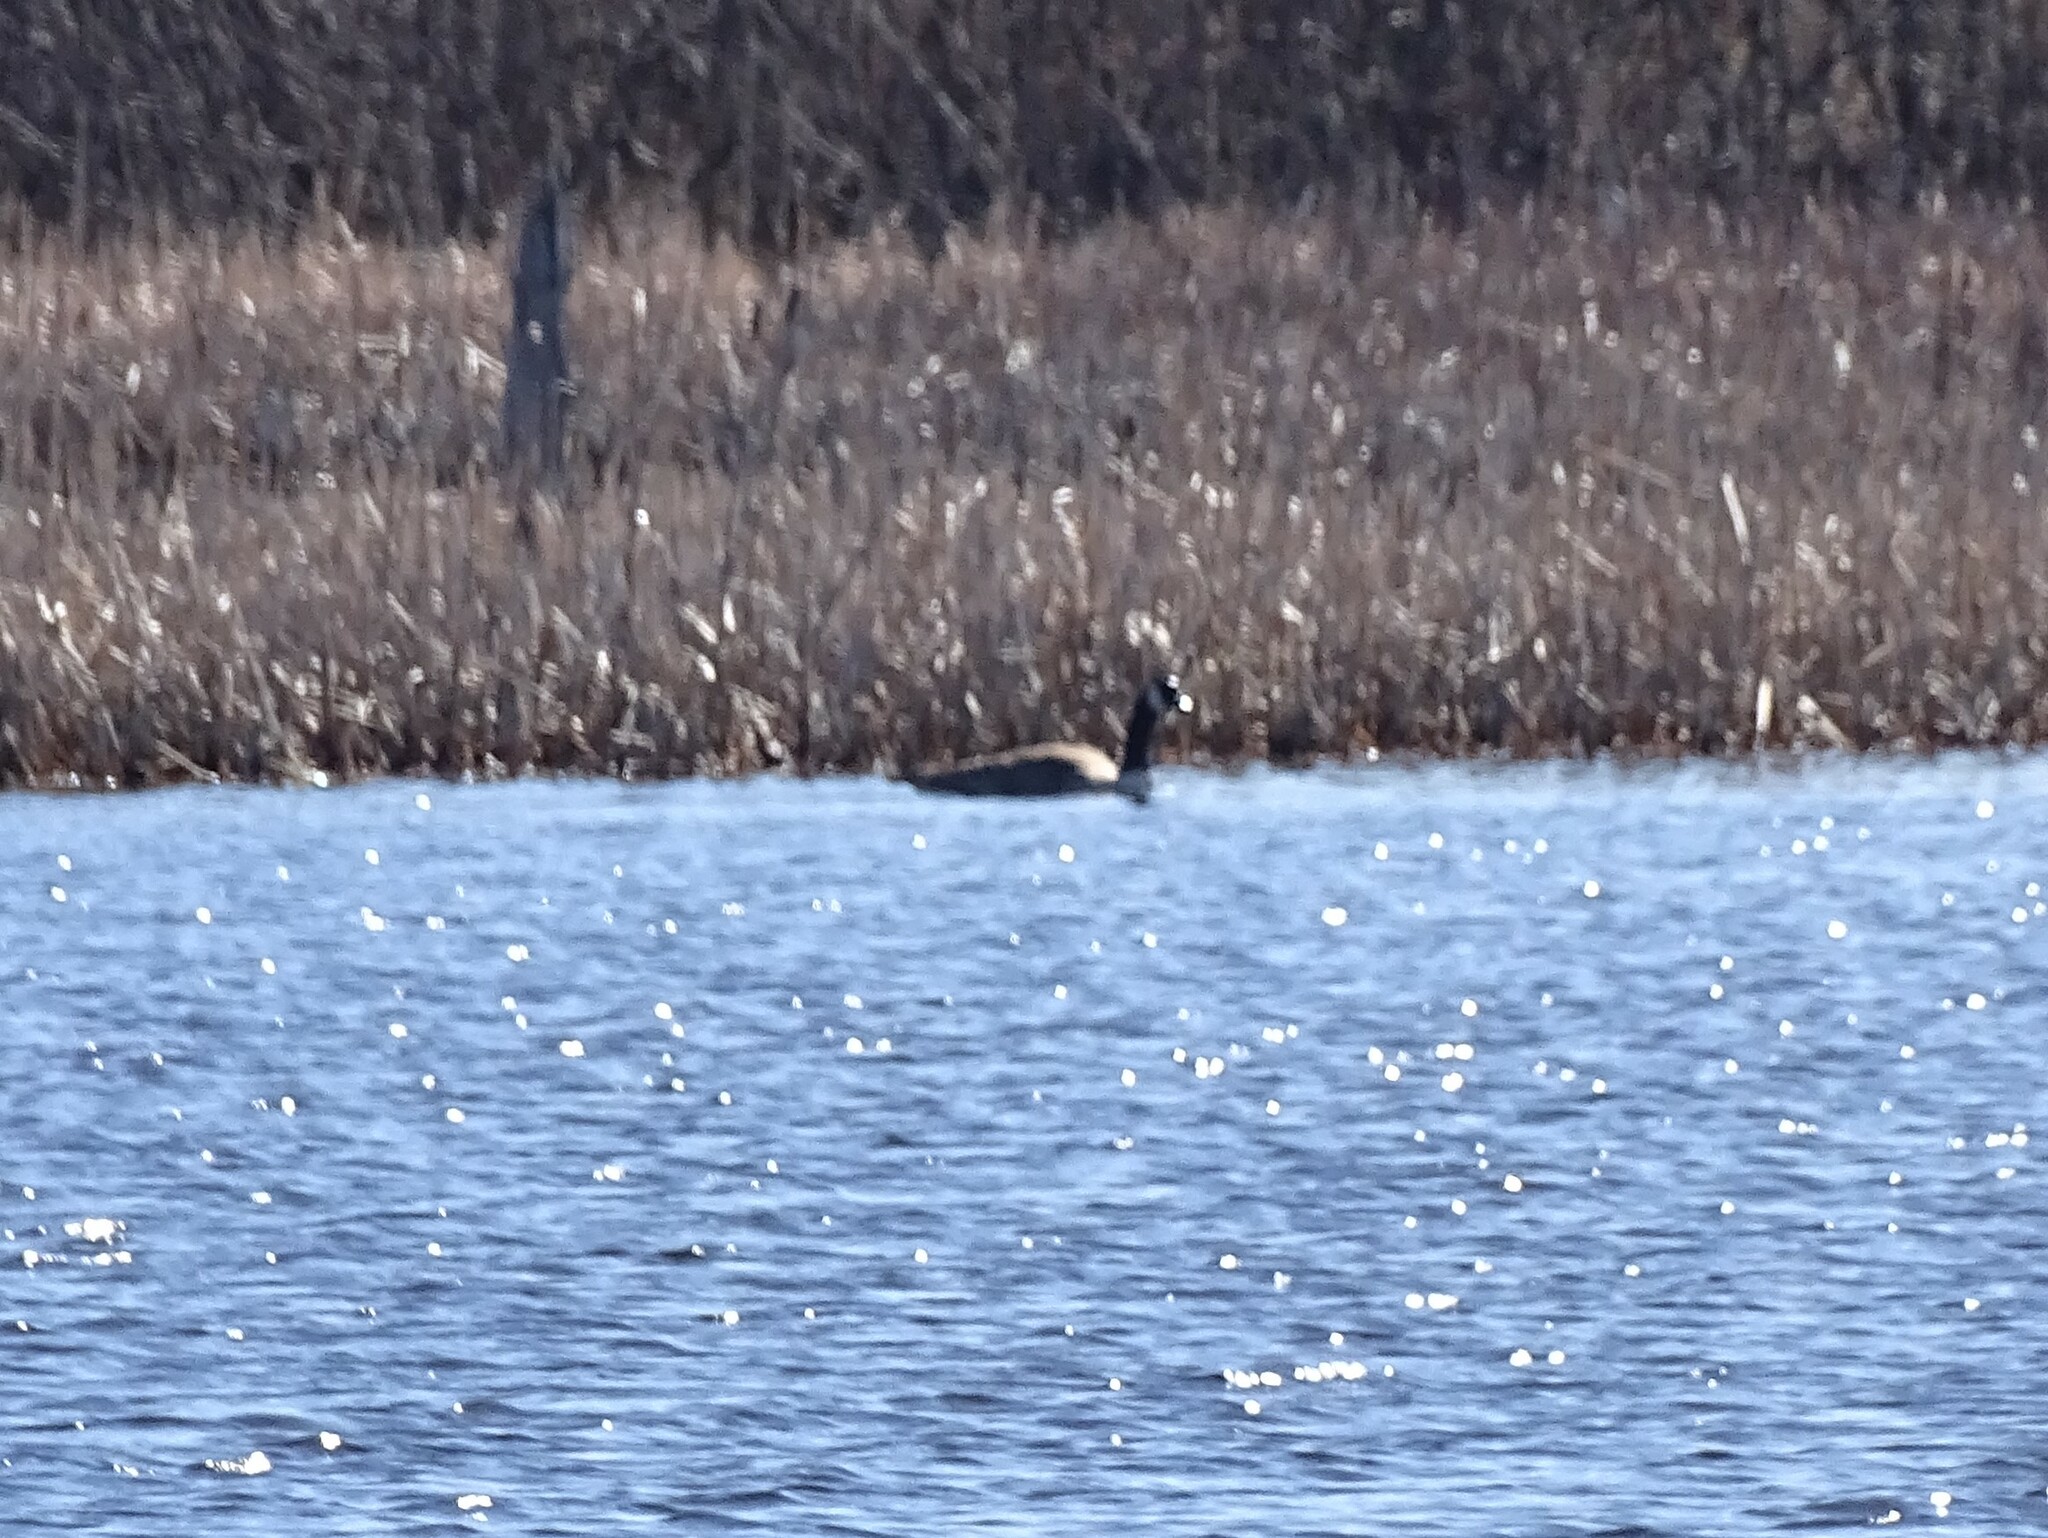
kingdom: Animalia
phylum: Chordata
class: Aves
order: Anseriformes
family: Anatidae
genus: Branta
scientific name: Branta canadensis
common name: Canada goose
